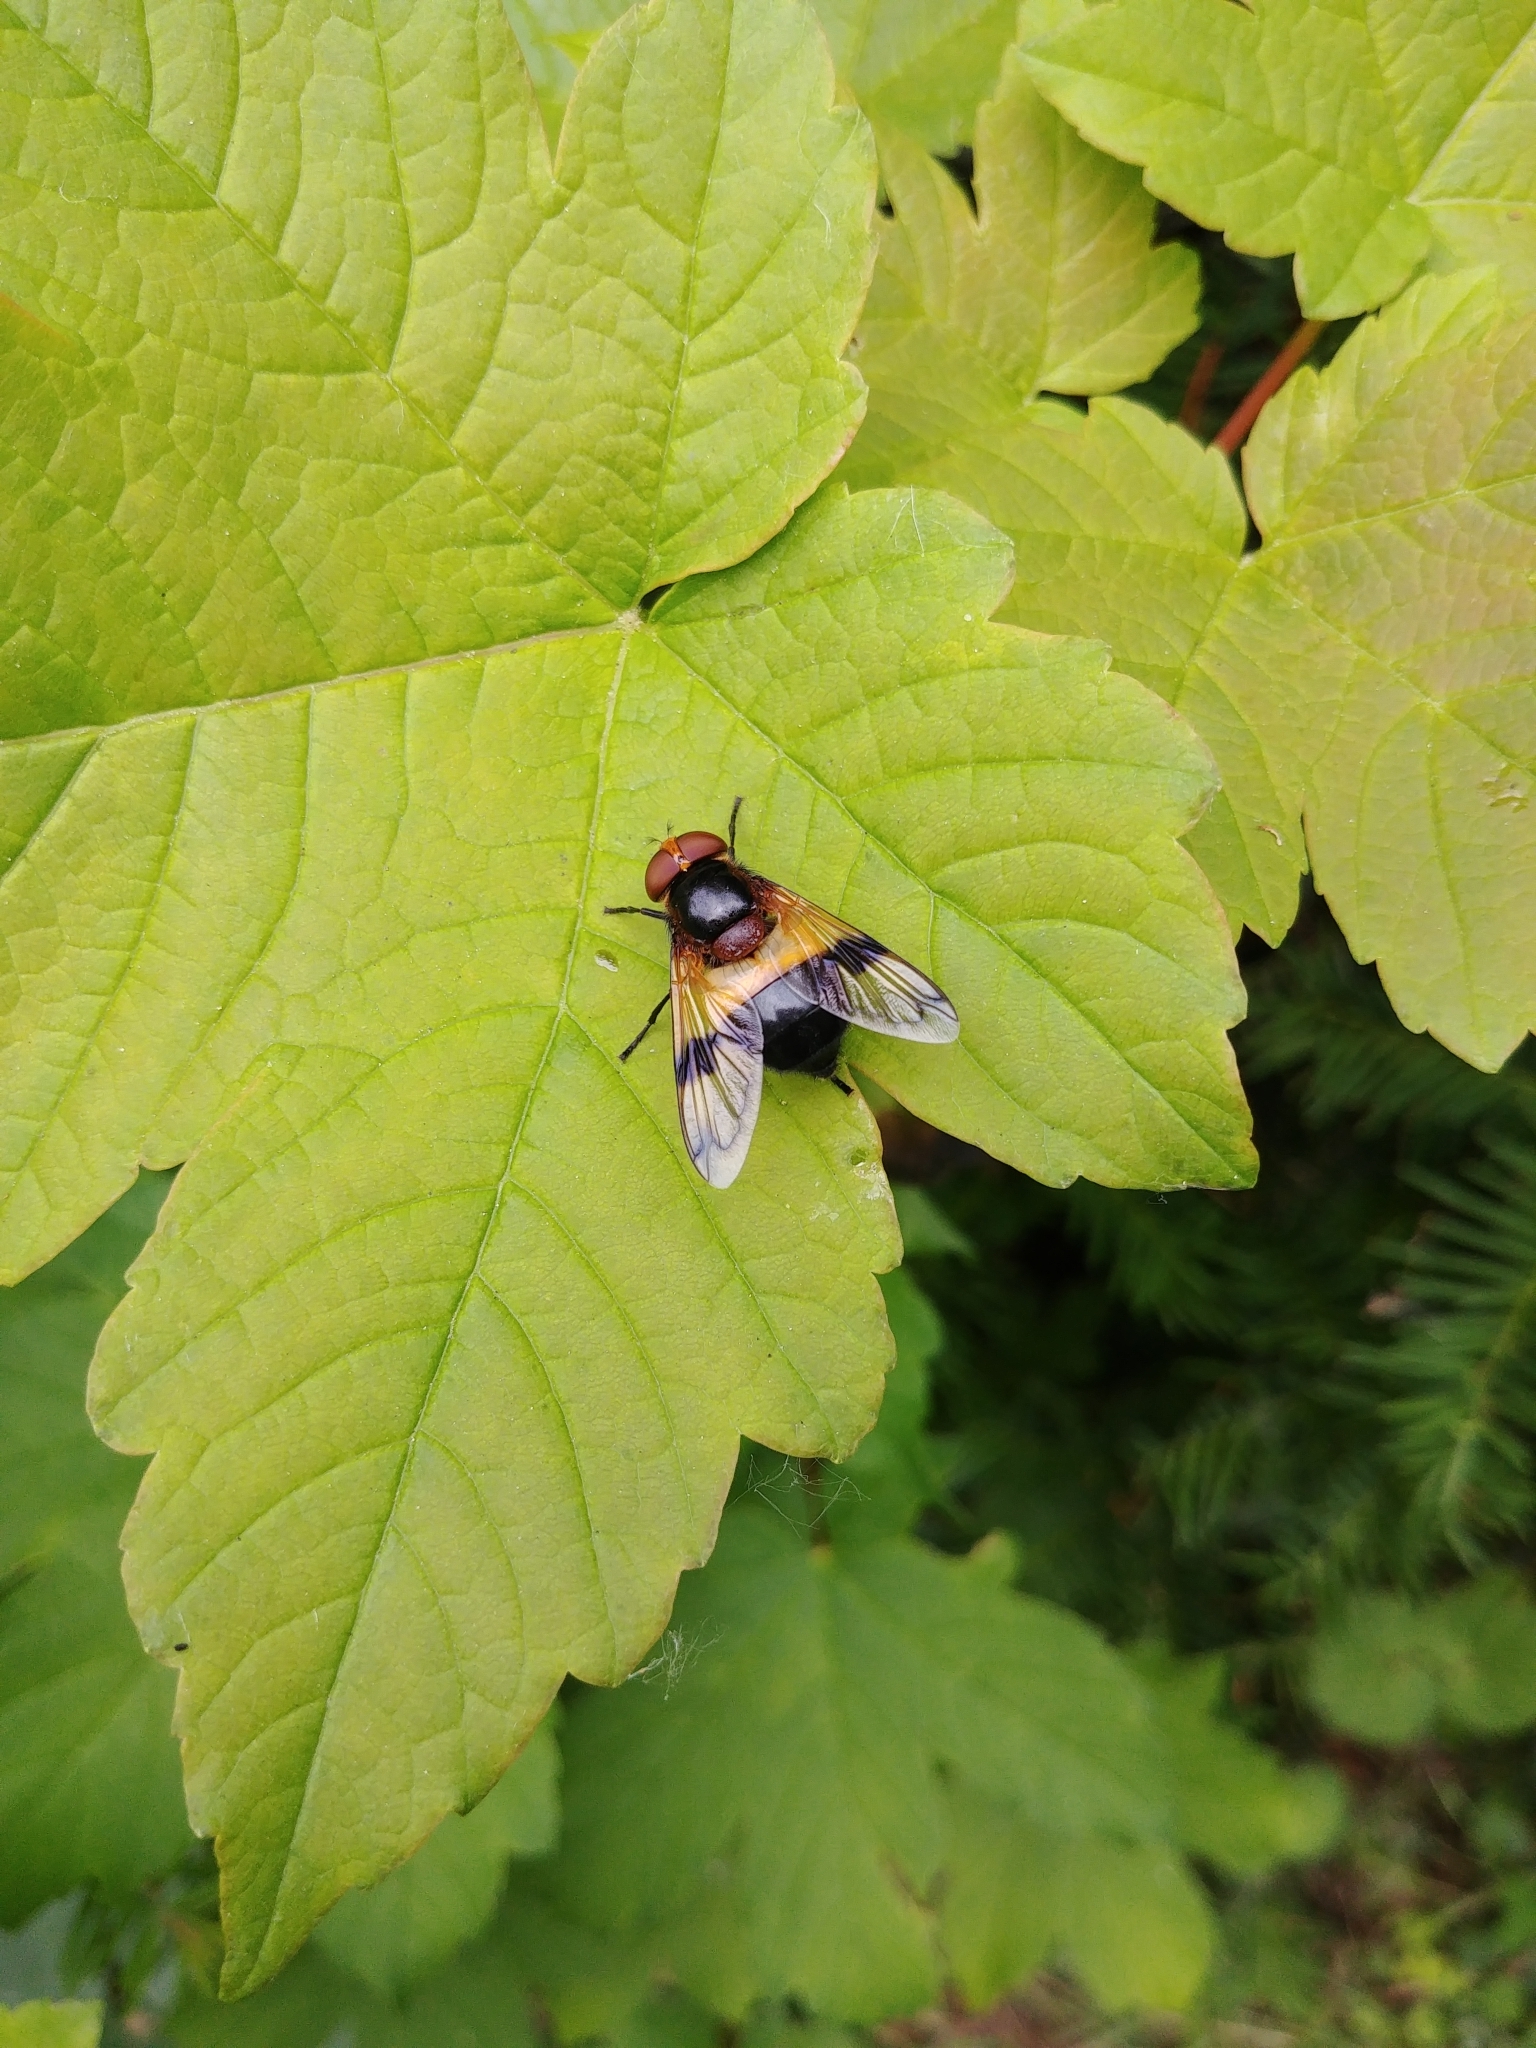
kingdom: Animalia
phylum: Arthropoda
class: Insecta
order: Diptera
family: Syrphidae
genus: Volucella
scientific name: Volucella pellucens
